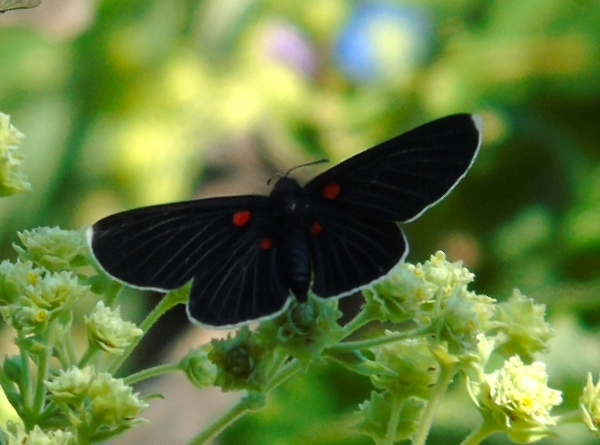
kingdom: Animalia
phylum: Arthropoda
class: Insecta
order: Lepidoptera
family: Lycaenidae
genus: Melanis
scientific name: Melanis
